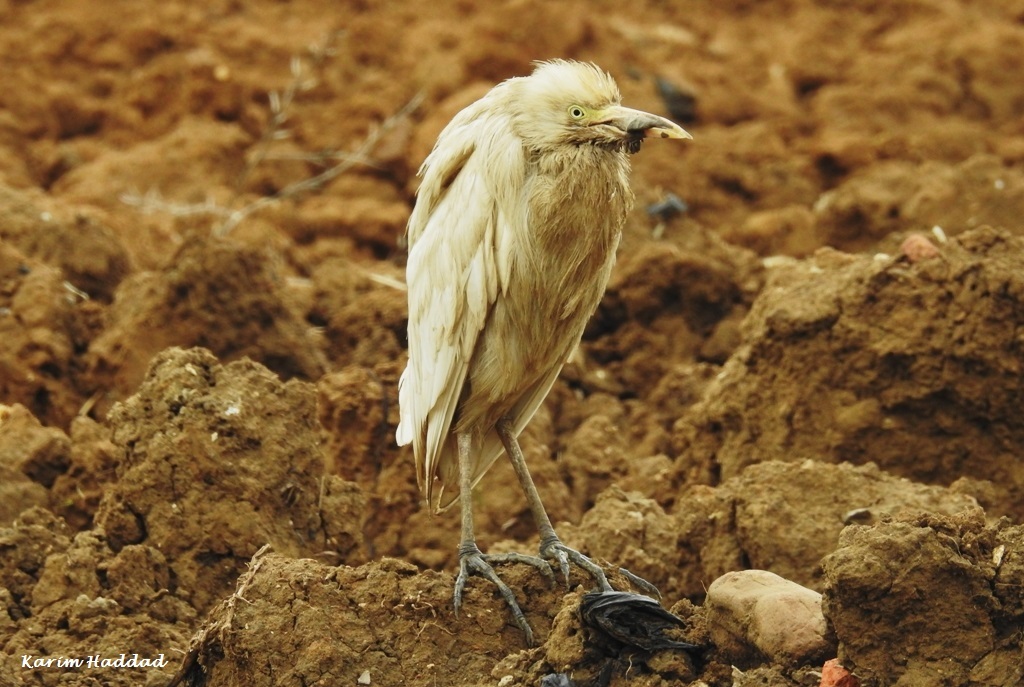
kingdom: Animalia
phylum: Chordata
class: Aves
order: Pelecaniformes
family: Ardeidae
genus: Bubulcus
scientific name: Bubulcus ibis
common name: Cattle egret
